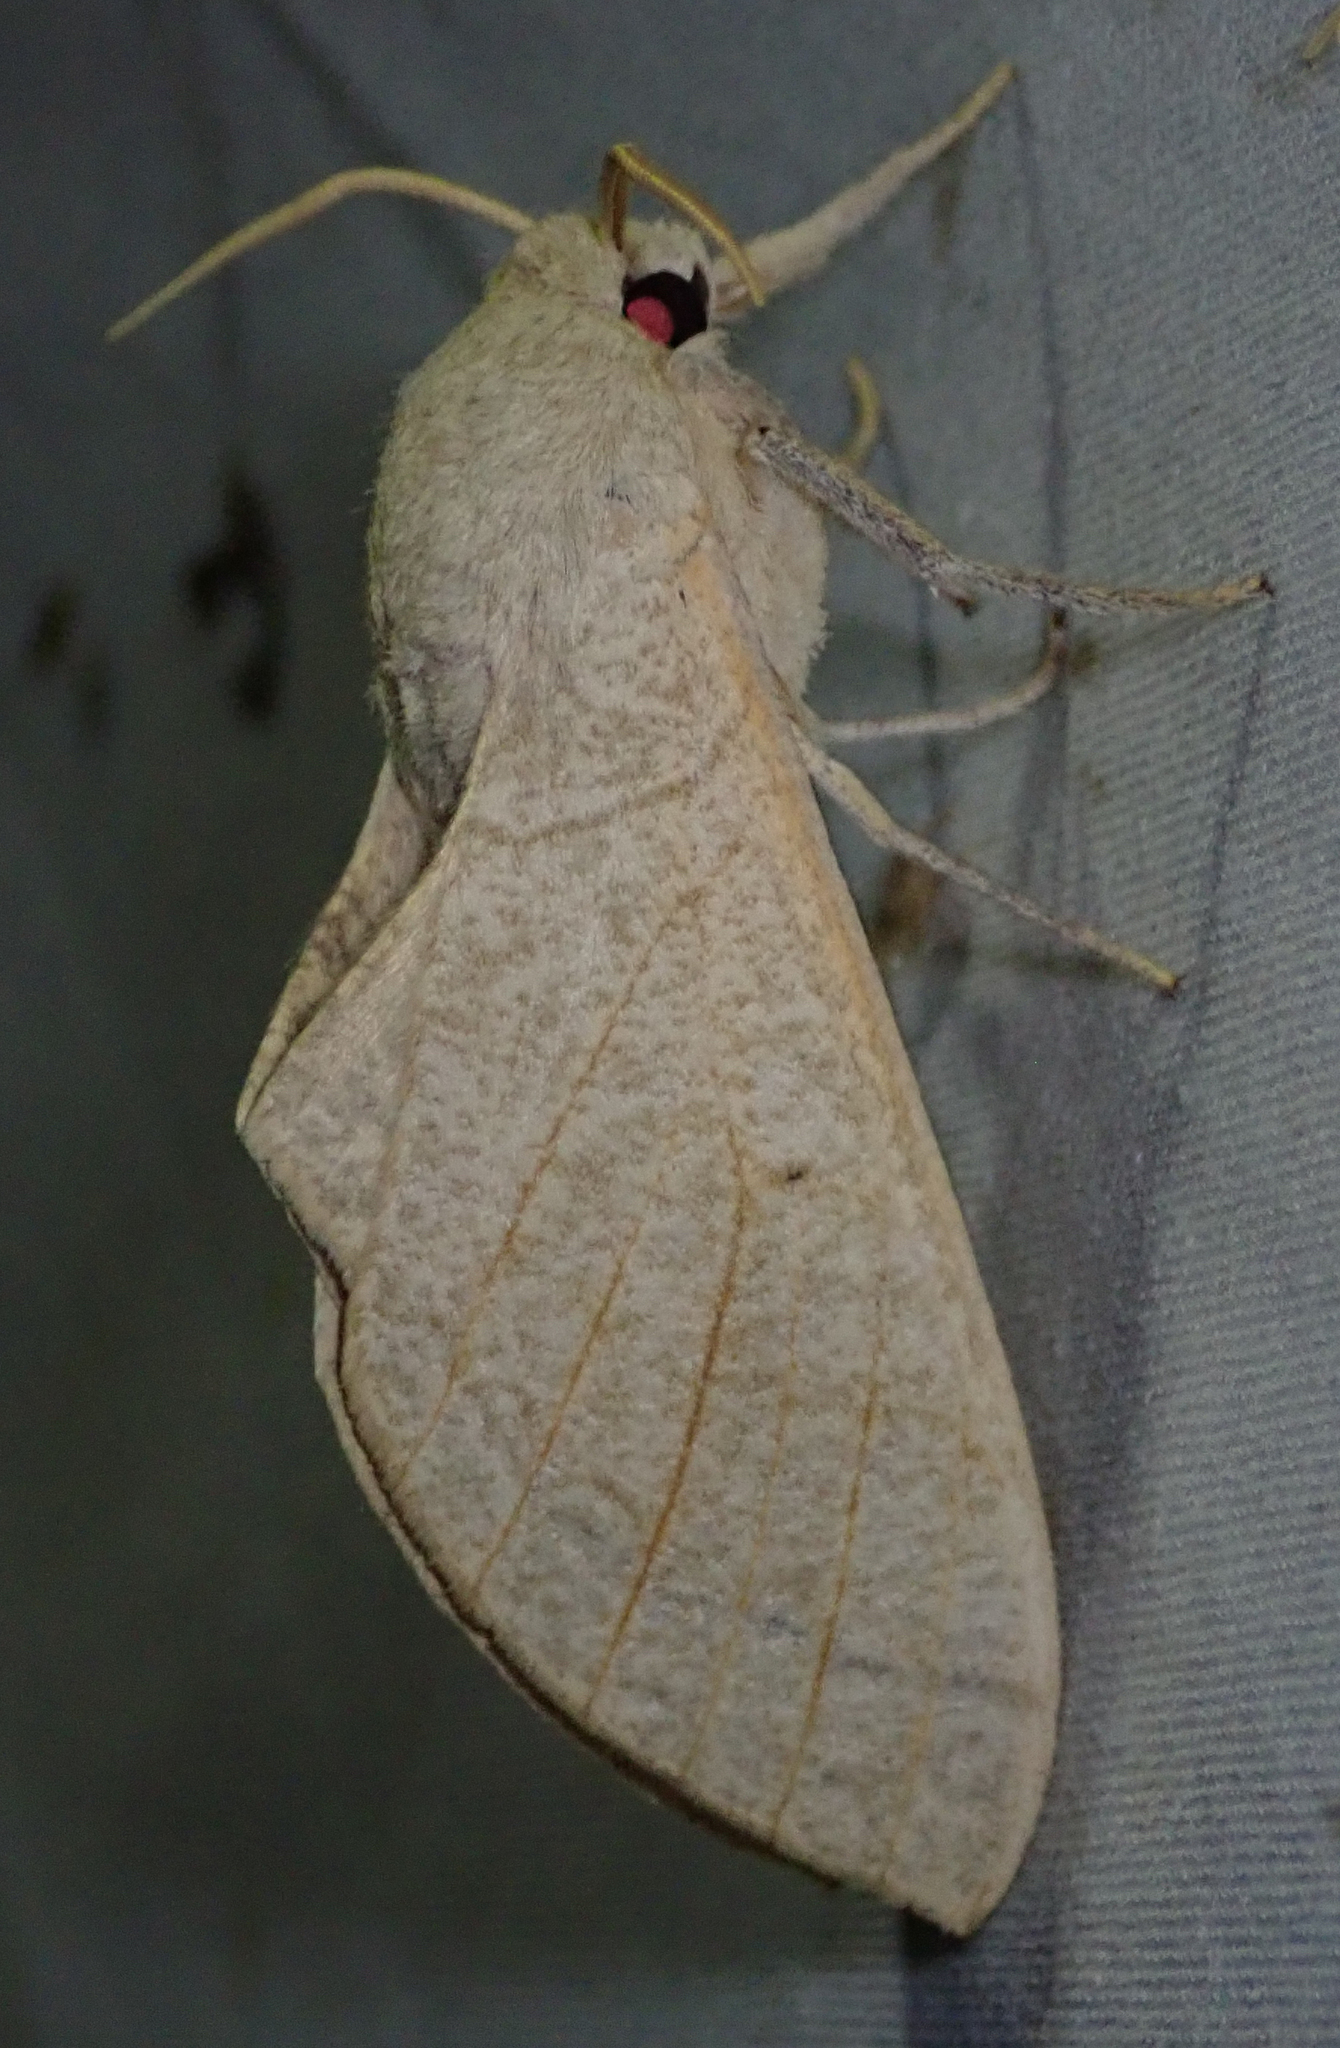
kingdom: Animalia
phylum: Arthropoda
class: Insecta
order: Lepidoptera
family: Sphingidae
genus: Neoclanis
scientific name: Neoclanis basalis
